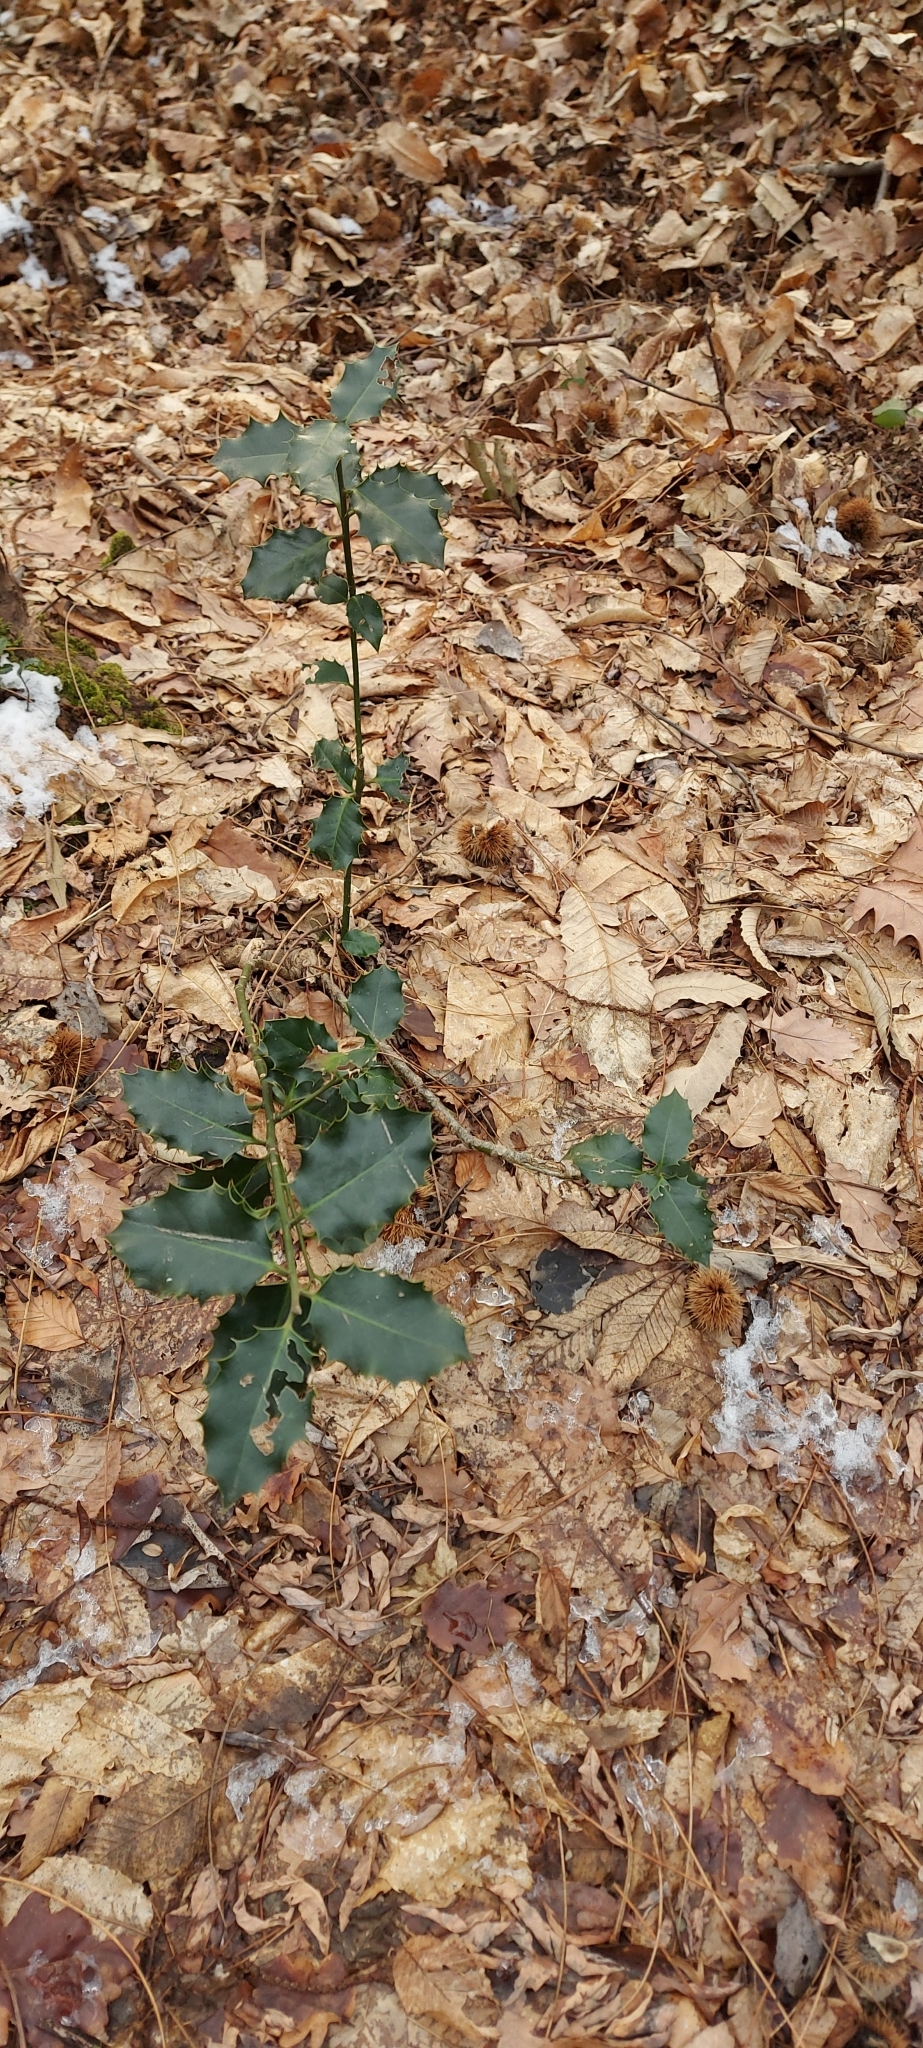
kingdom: Plantae
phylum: Tracheophyta
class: Magnoliopsida
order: Aquifoliales
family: Aquifoliaceae
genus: Ilex
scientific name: Ilex aquifolium
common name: English holly
